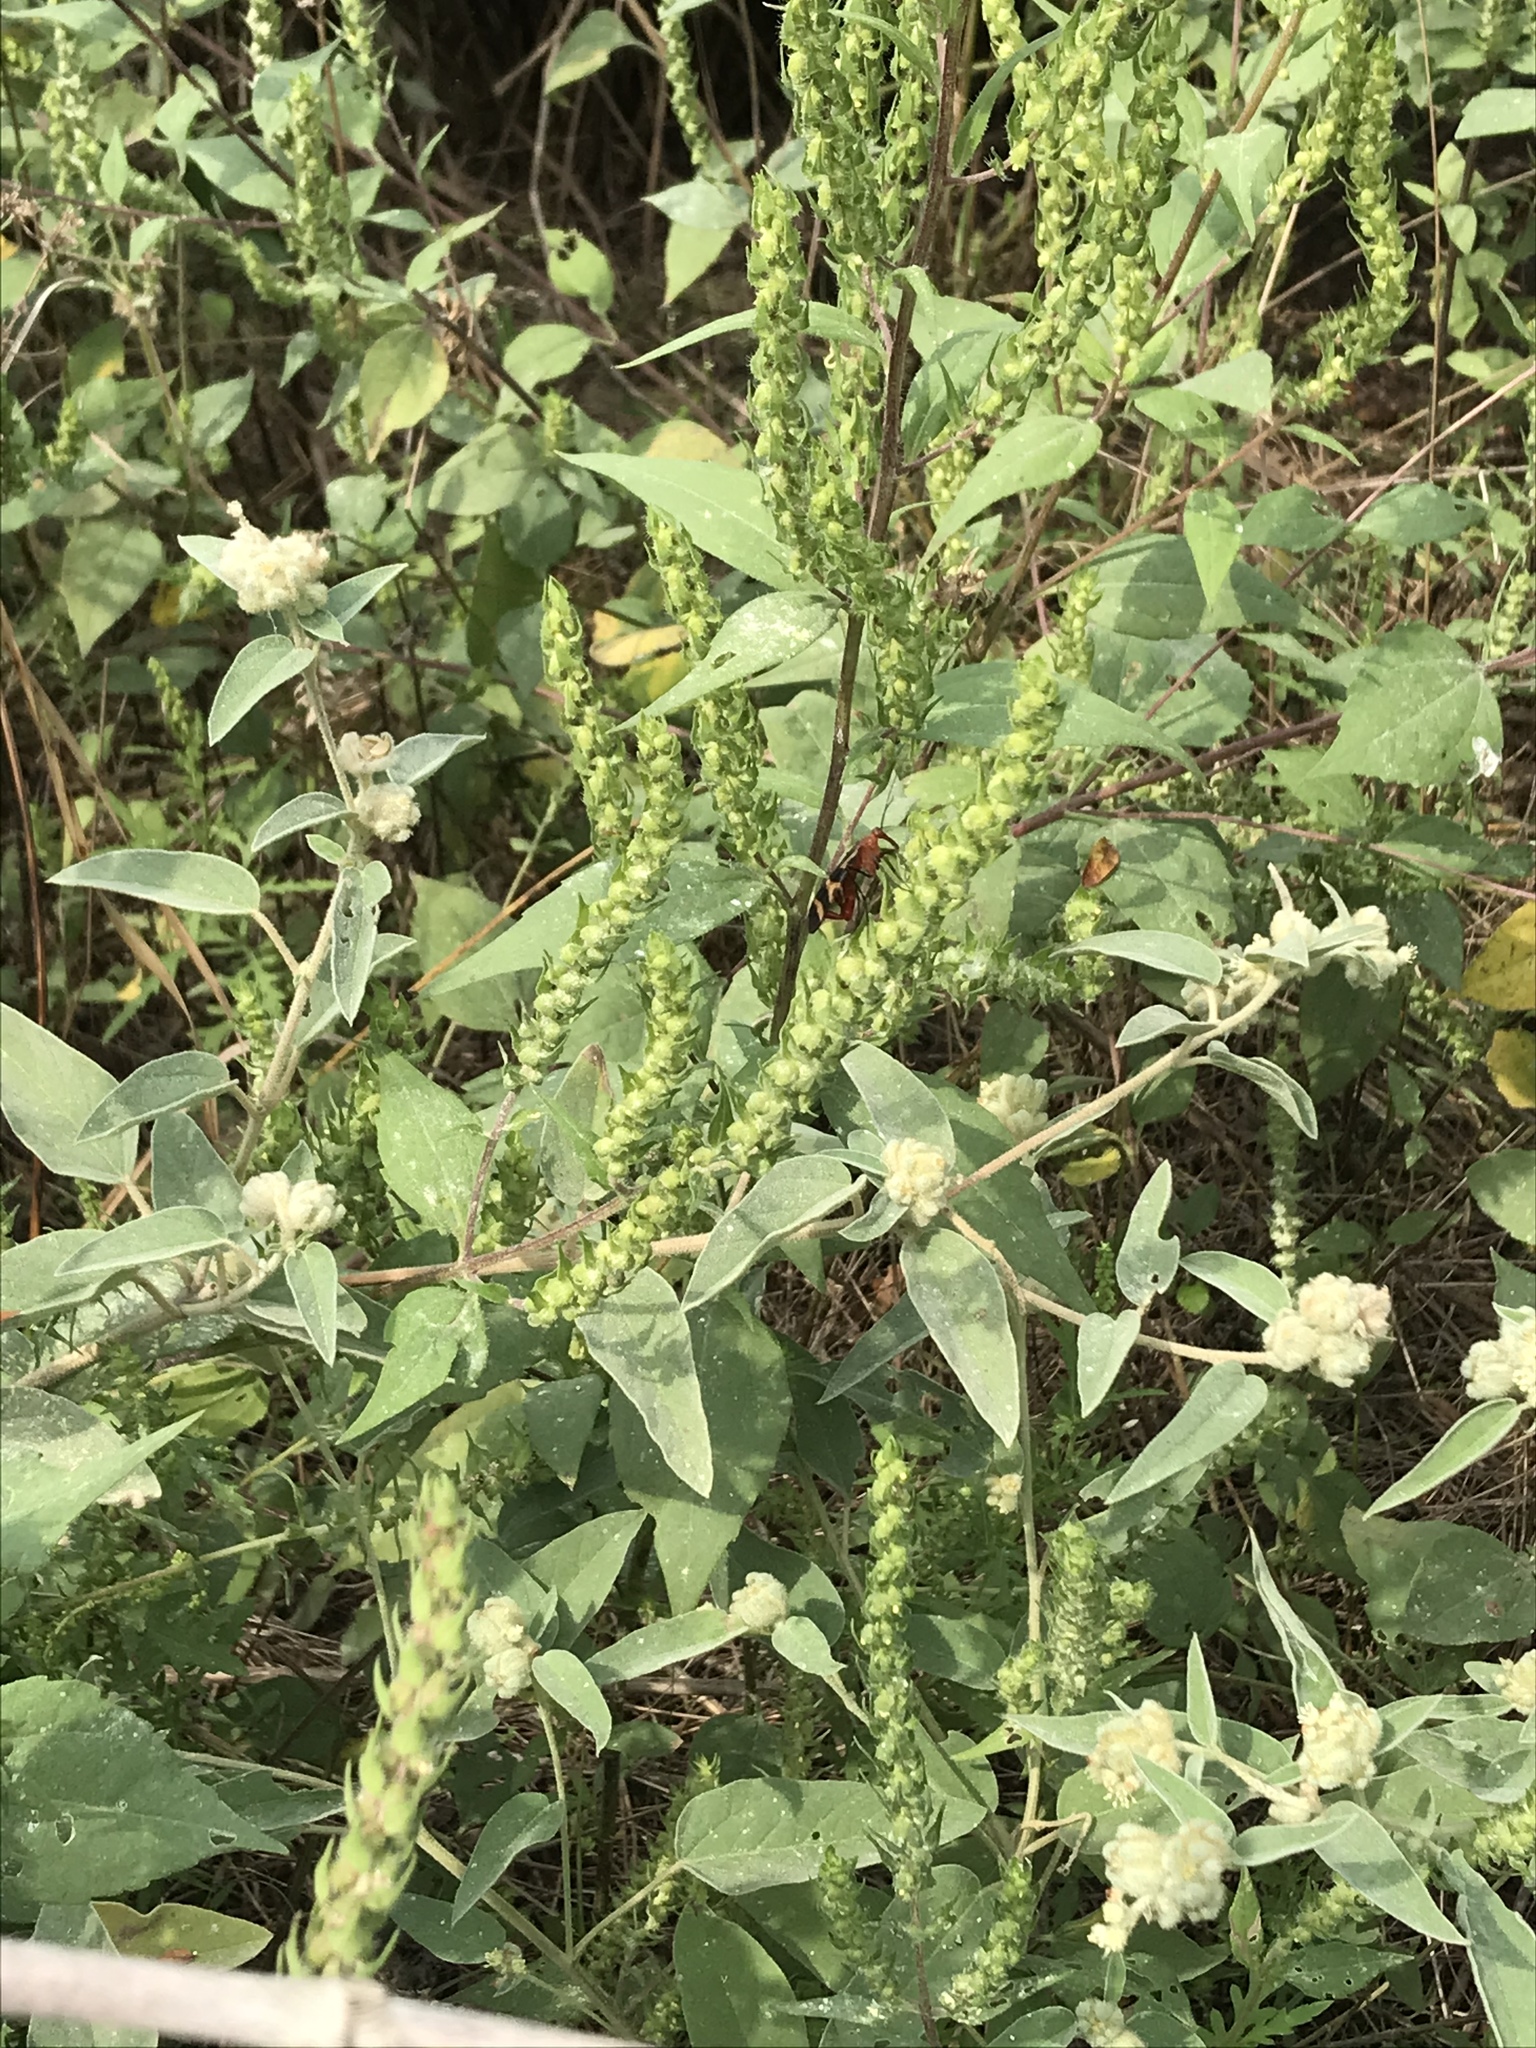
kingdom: Plantae
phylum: Tracheophyta
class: Magnoliopsida
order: Asterales
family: Asteraceae
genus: Iva
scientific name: Iva annua
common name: Marsh-elder
